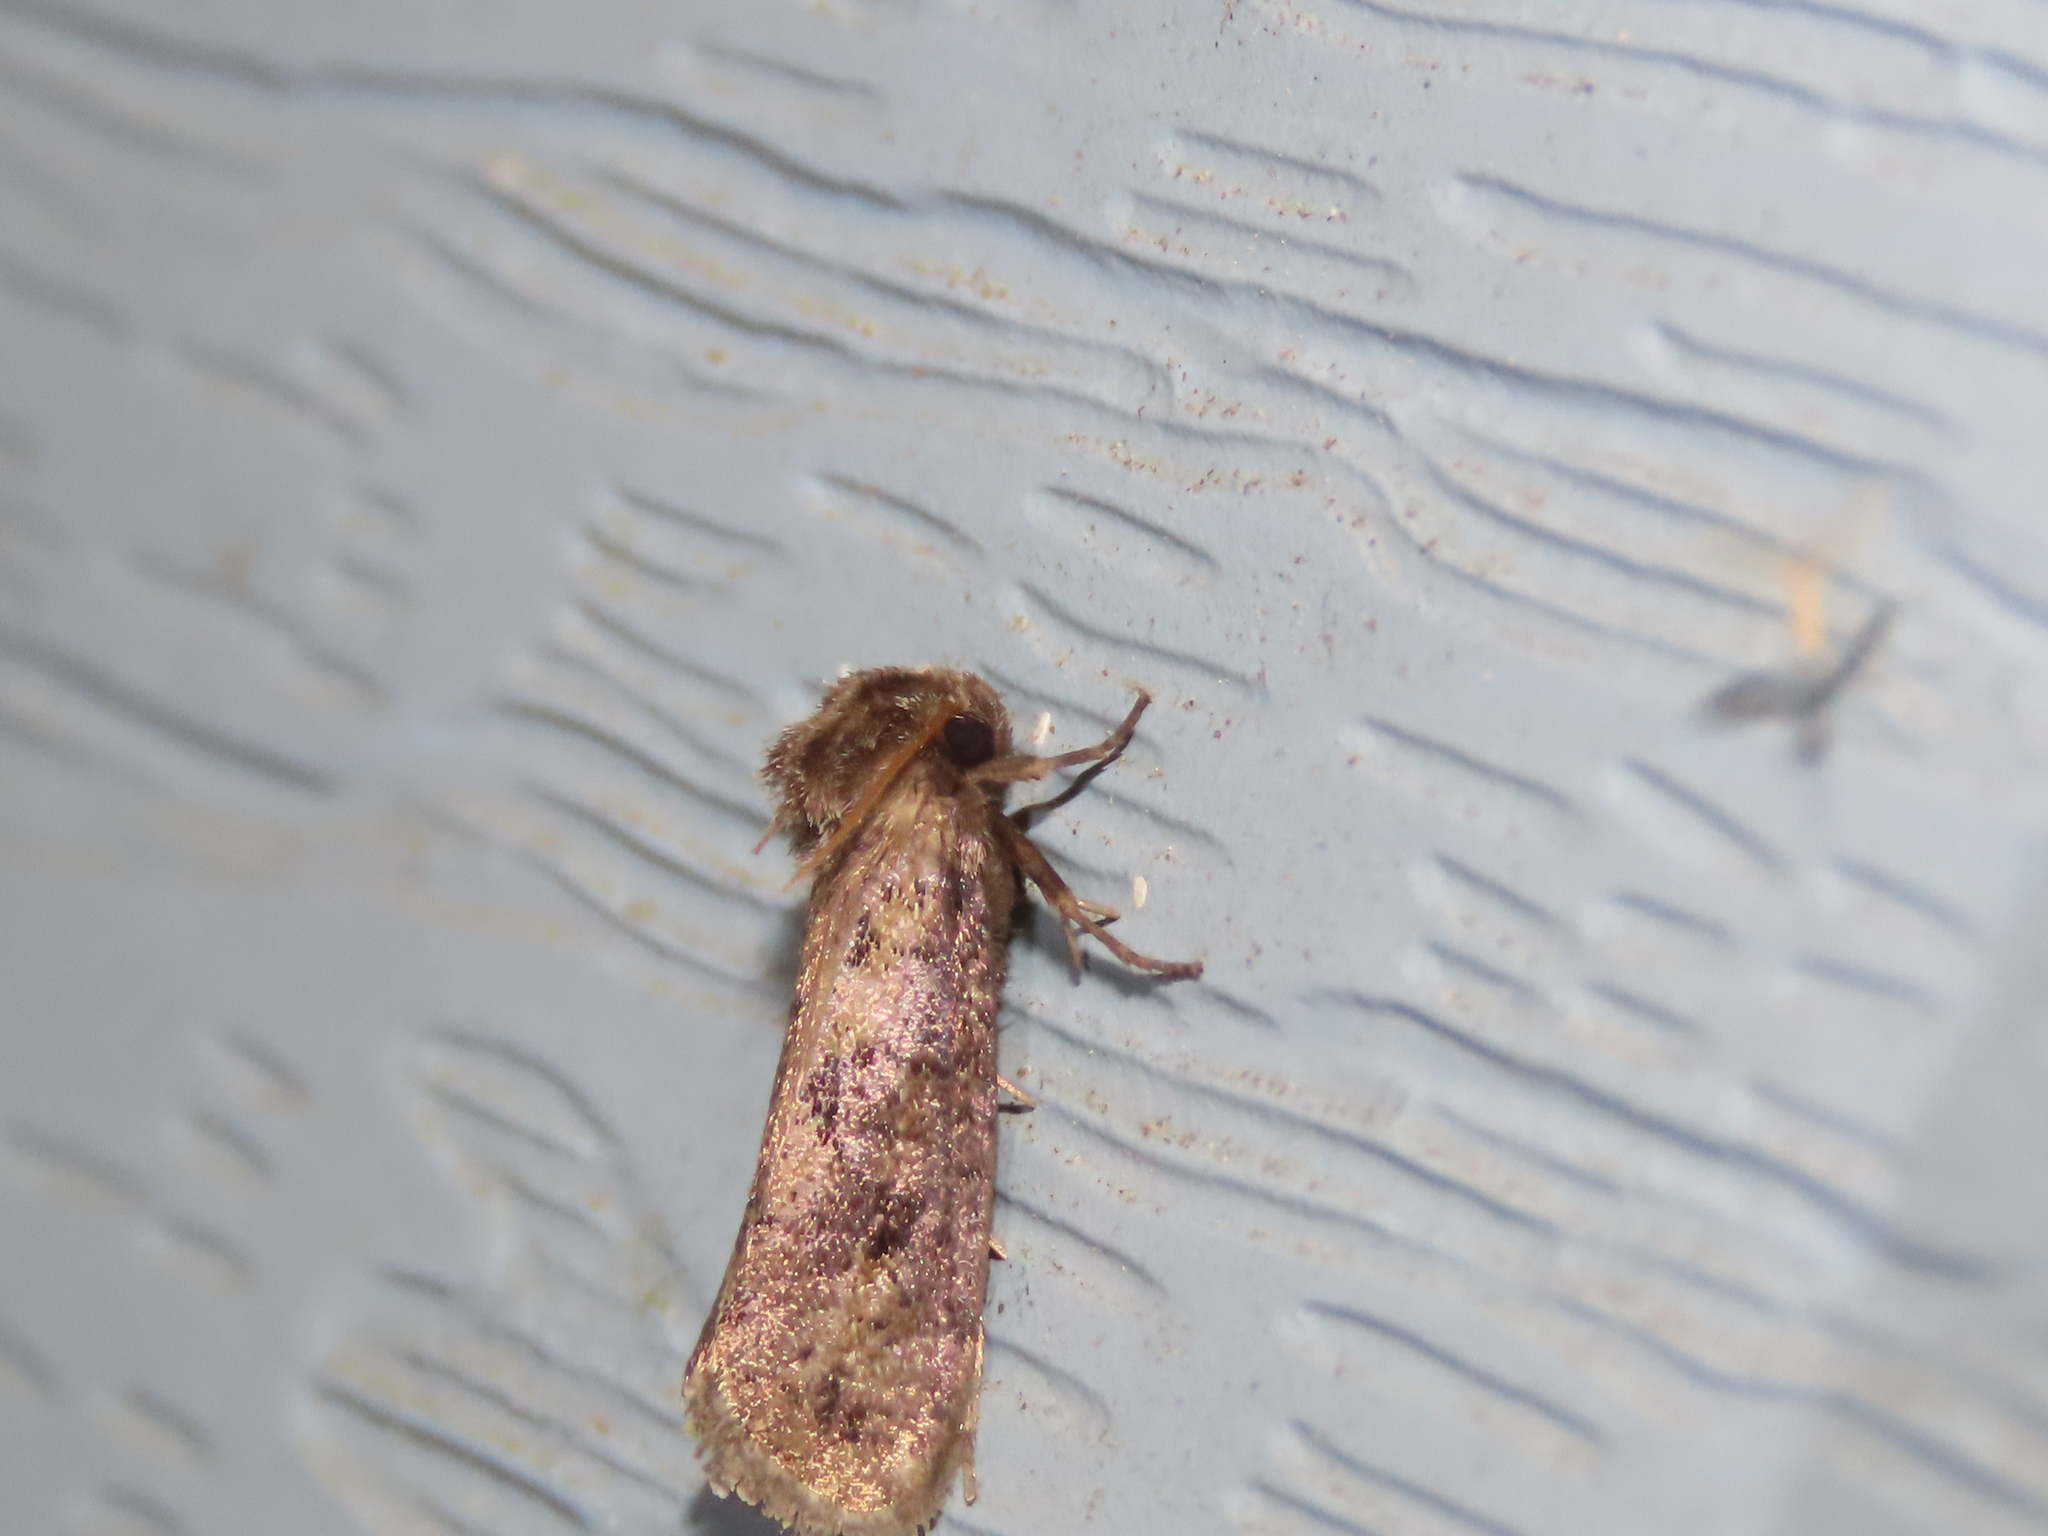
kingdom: Animalia
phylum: Arthropoda
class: Insecta
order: Lepidoptera
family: Tineidae
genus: Acrolophus
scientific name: Acrolophus popeanella
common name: Clemens' grass tubeworm moth
